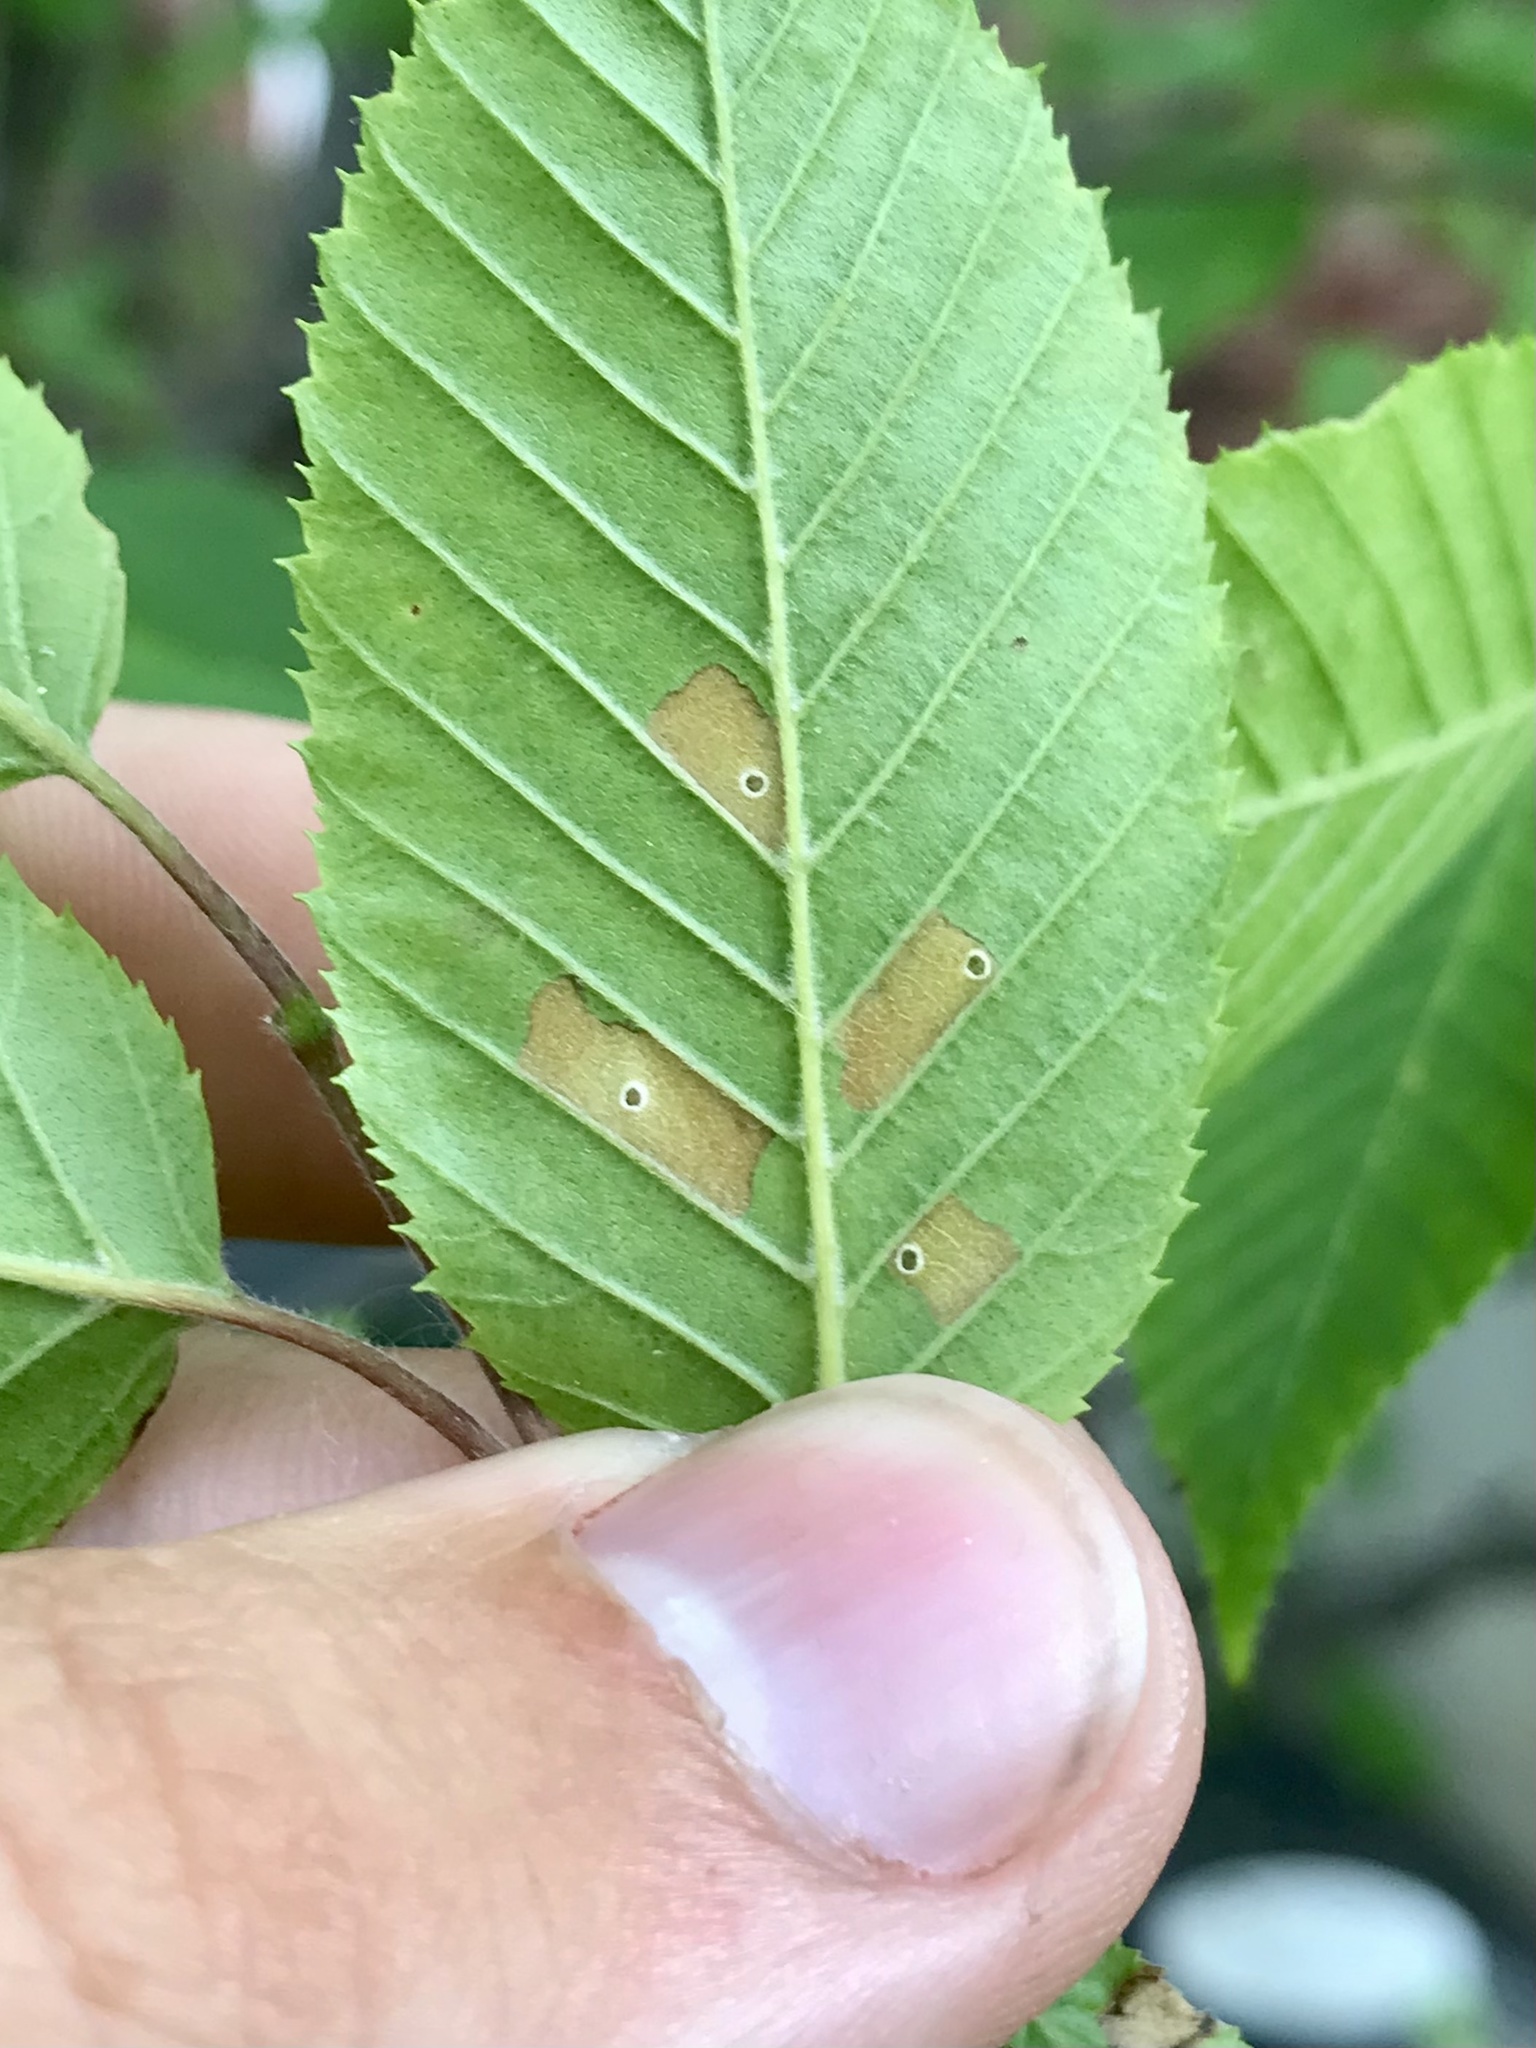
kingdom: Animalia
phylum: Arthropoda
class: Insecta
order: Lepidoptera
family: Coleophoridae
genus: Coleophora
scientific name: Coleophora ostryae
